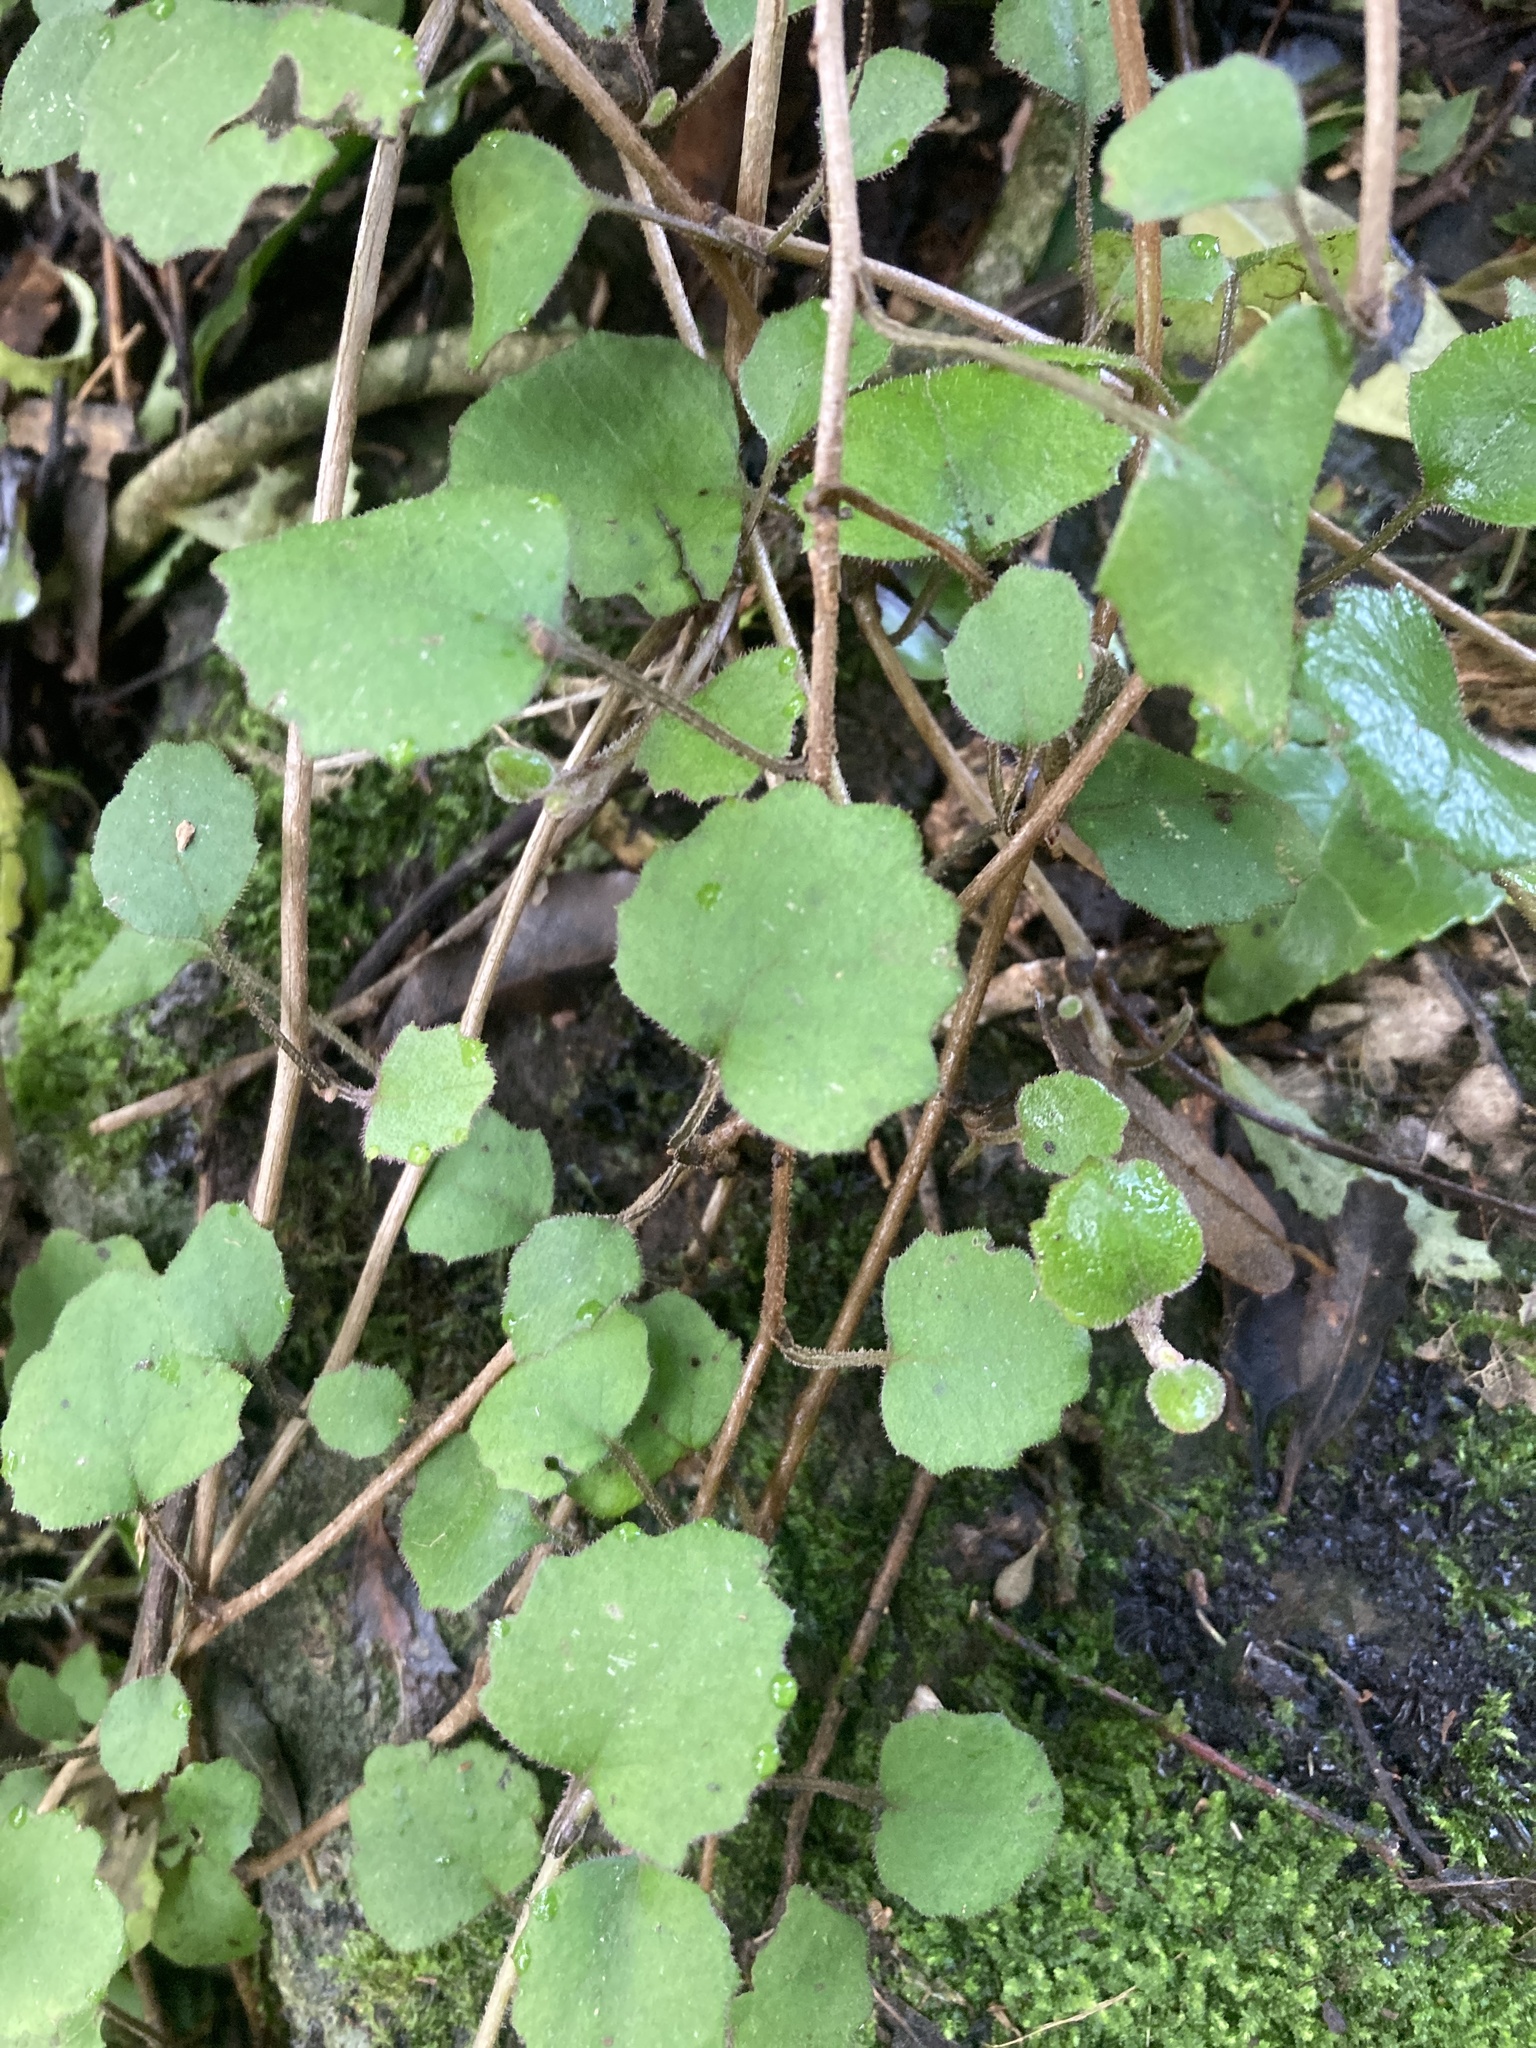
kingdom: Plantae
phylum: Tracheophyta
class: Magnoliopsida
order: Asterales
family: Asteraceae
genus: Brachyglottis
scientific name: Brachyglottis sciadophila
